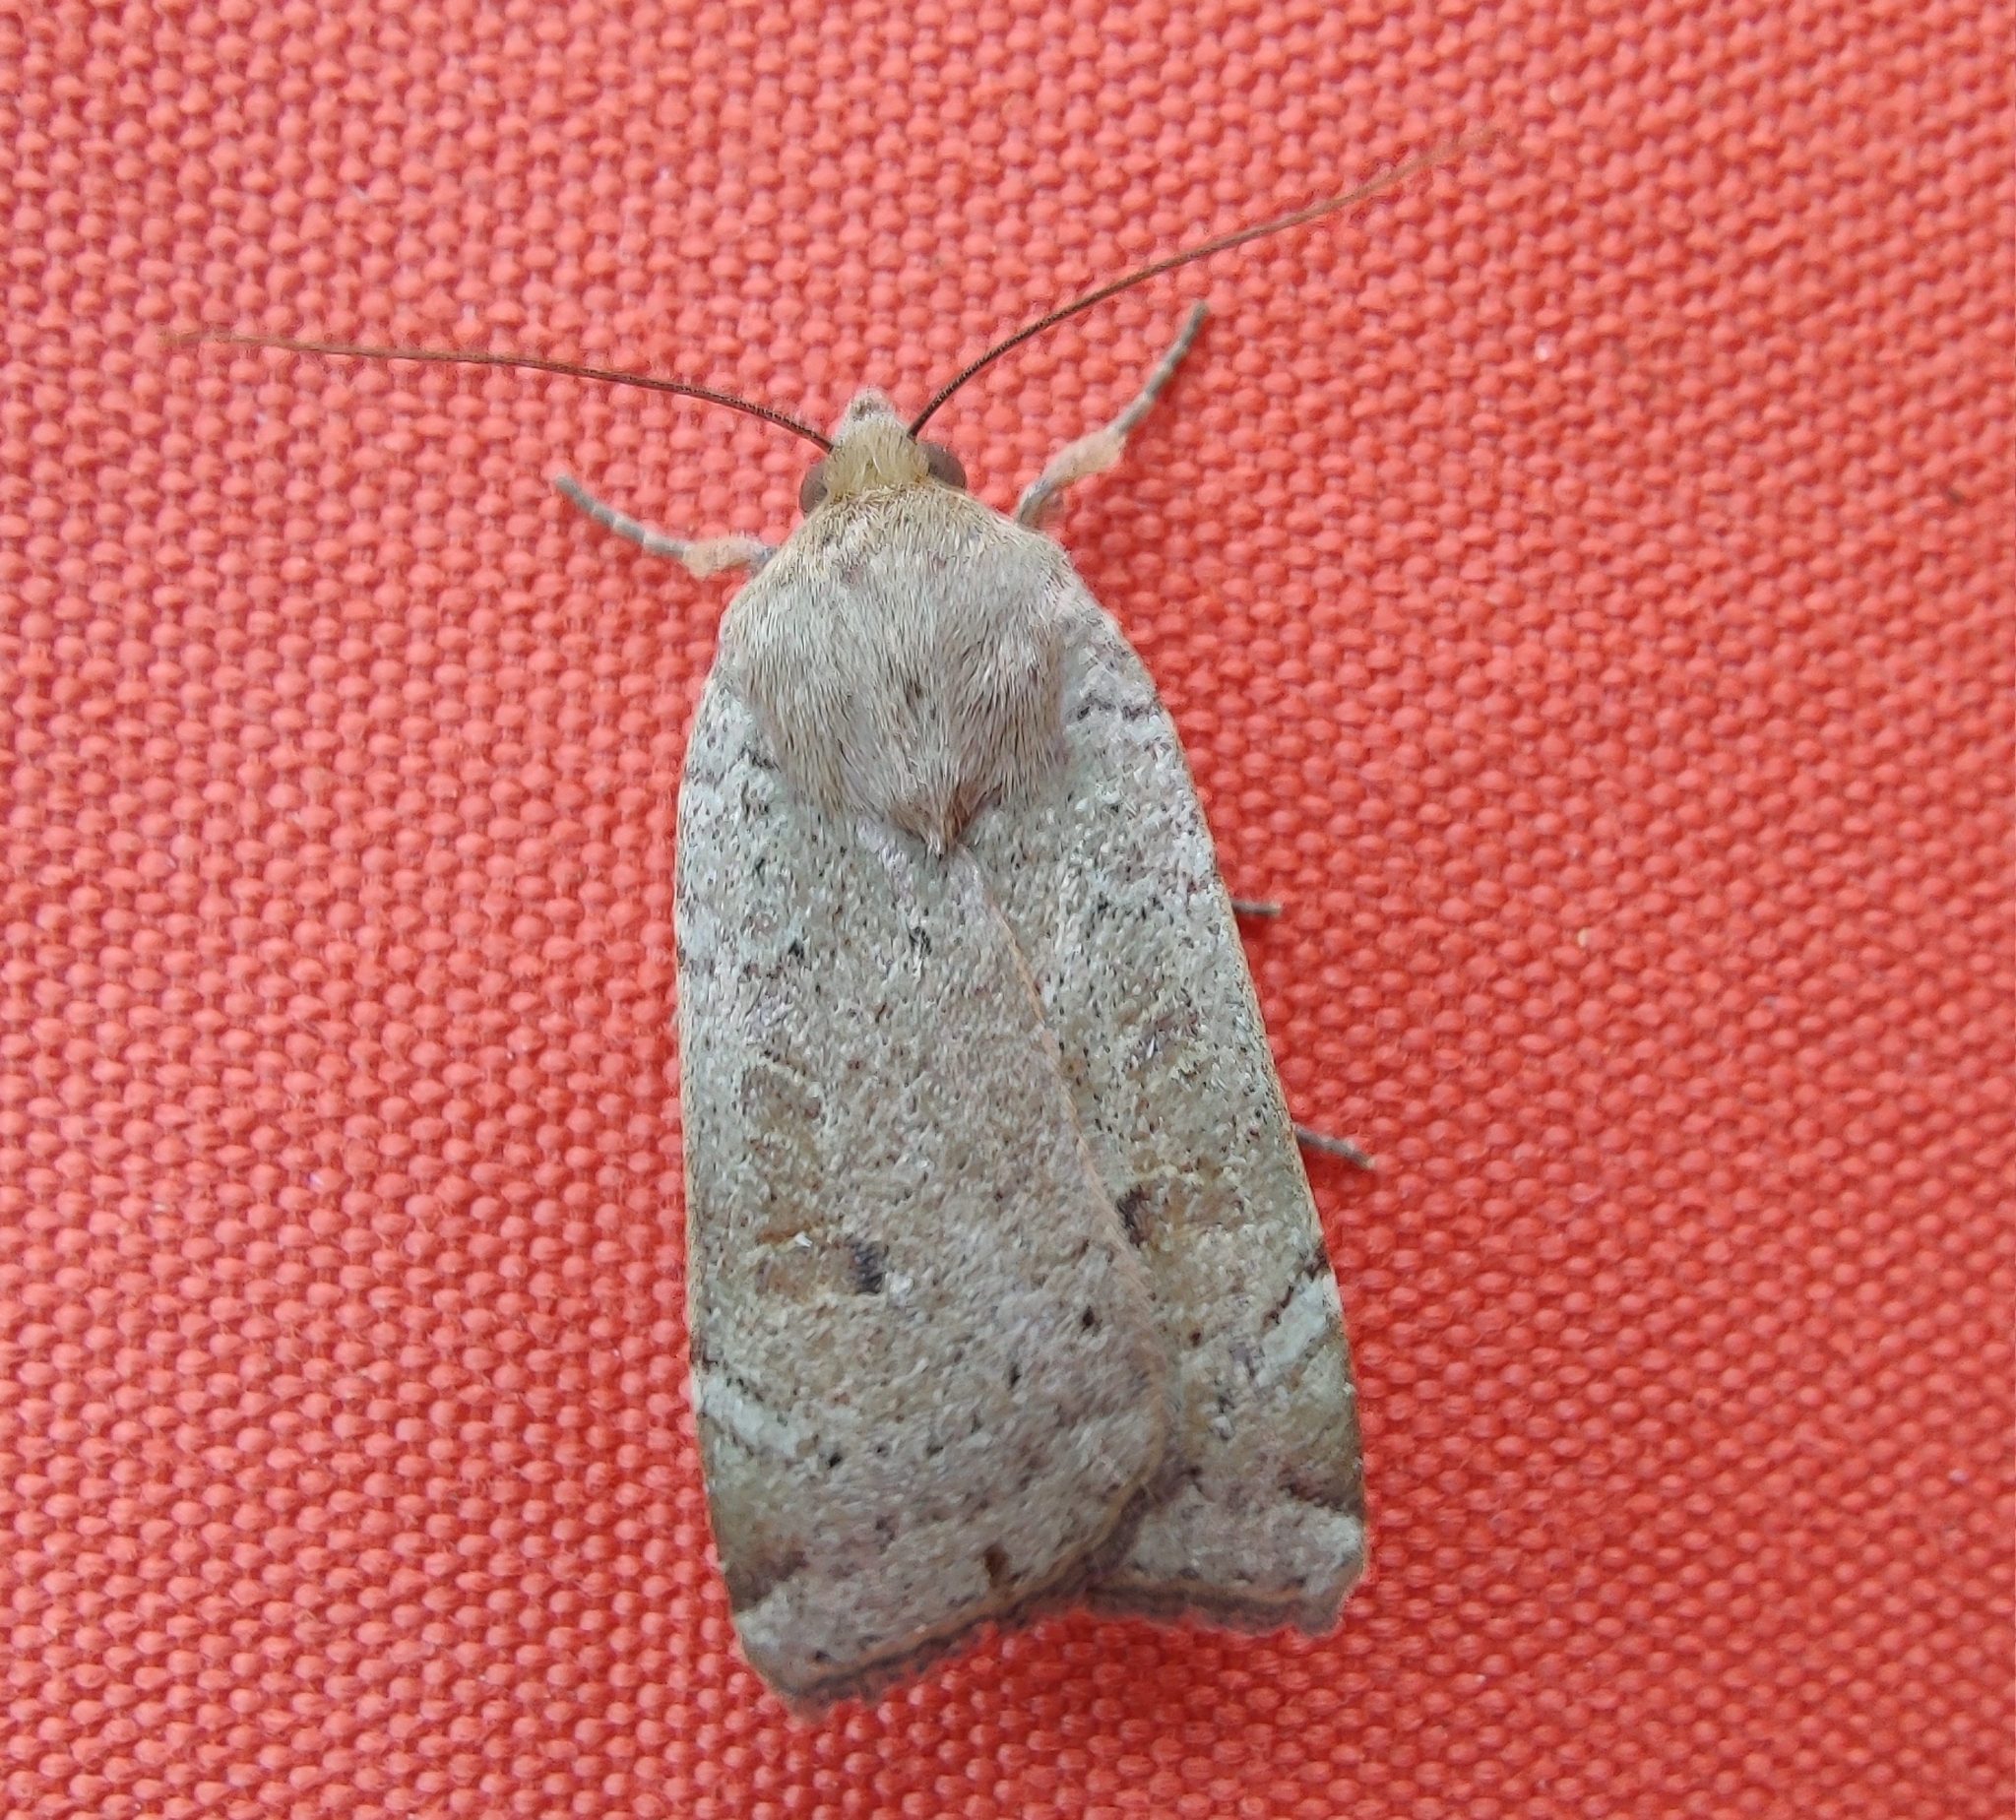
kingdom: Animalia
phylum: Arthropoda
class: Insecta
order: Lepidoptera
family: Noctuidae
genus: Noctua
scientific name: Noctua comes
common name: Lesser yellow underwing
